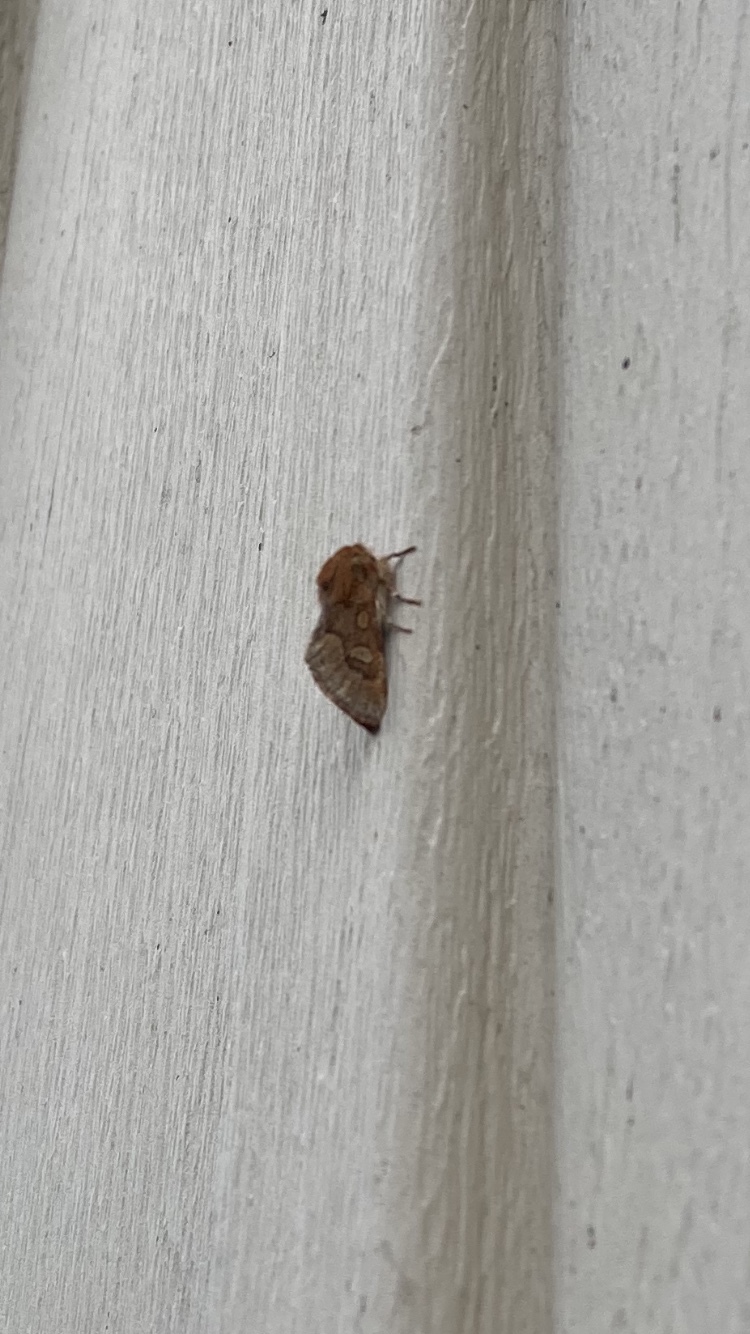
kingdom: Animalia
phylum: Arthropoda
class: Insecta
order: Lepidoptera
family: Noctuidae
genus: Psaphida
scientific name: Psaphida styracis
